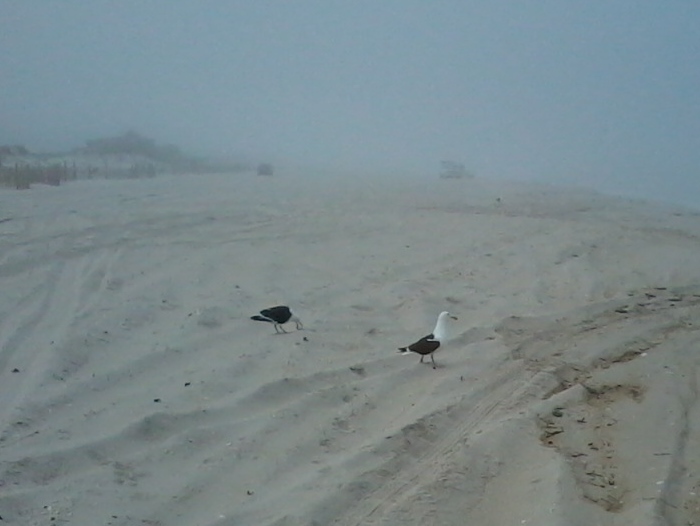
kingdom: Animalia
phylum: Chordata
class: Aves
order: Charadriiformes
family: Laridae
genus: Larus
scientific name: Larus marinus
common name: Great black-backed gull
